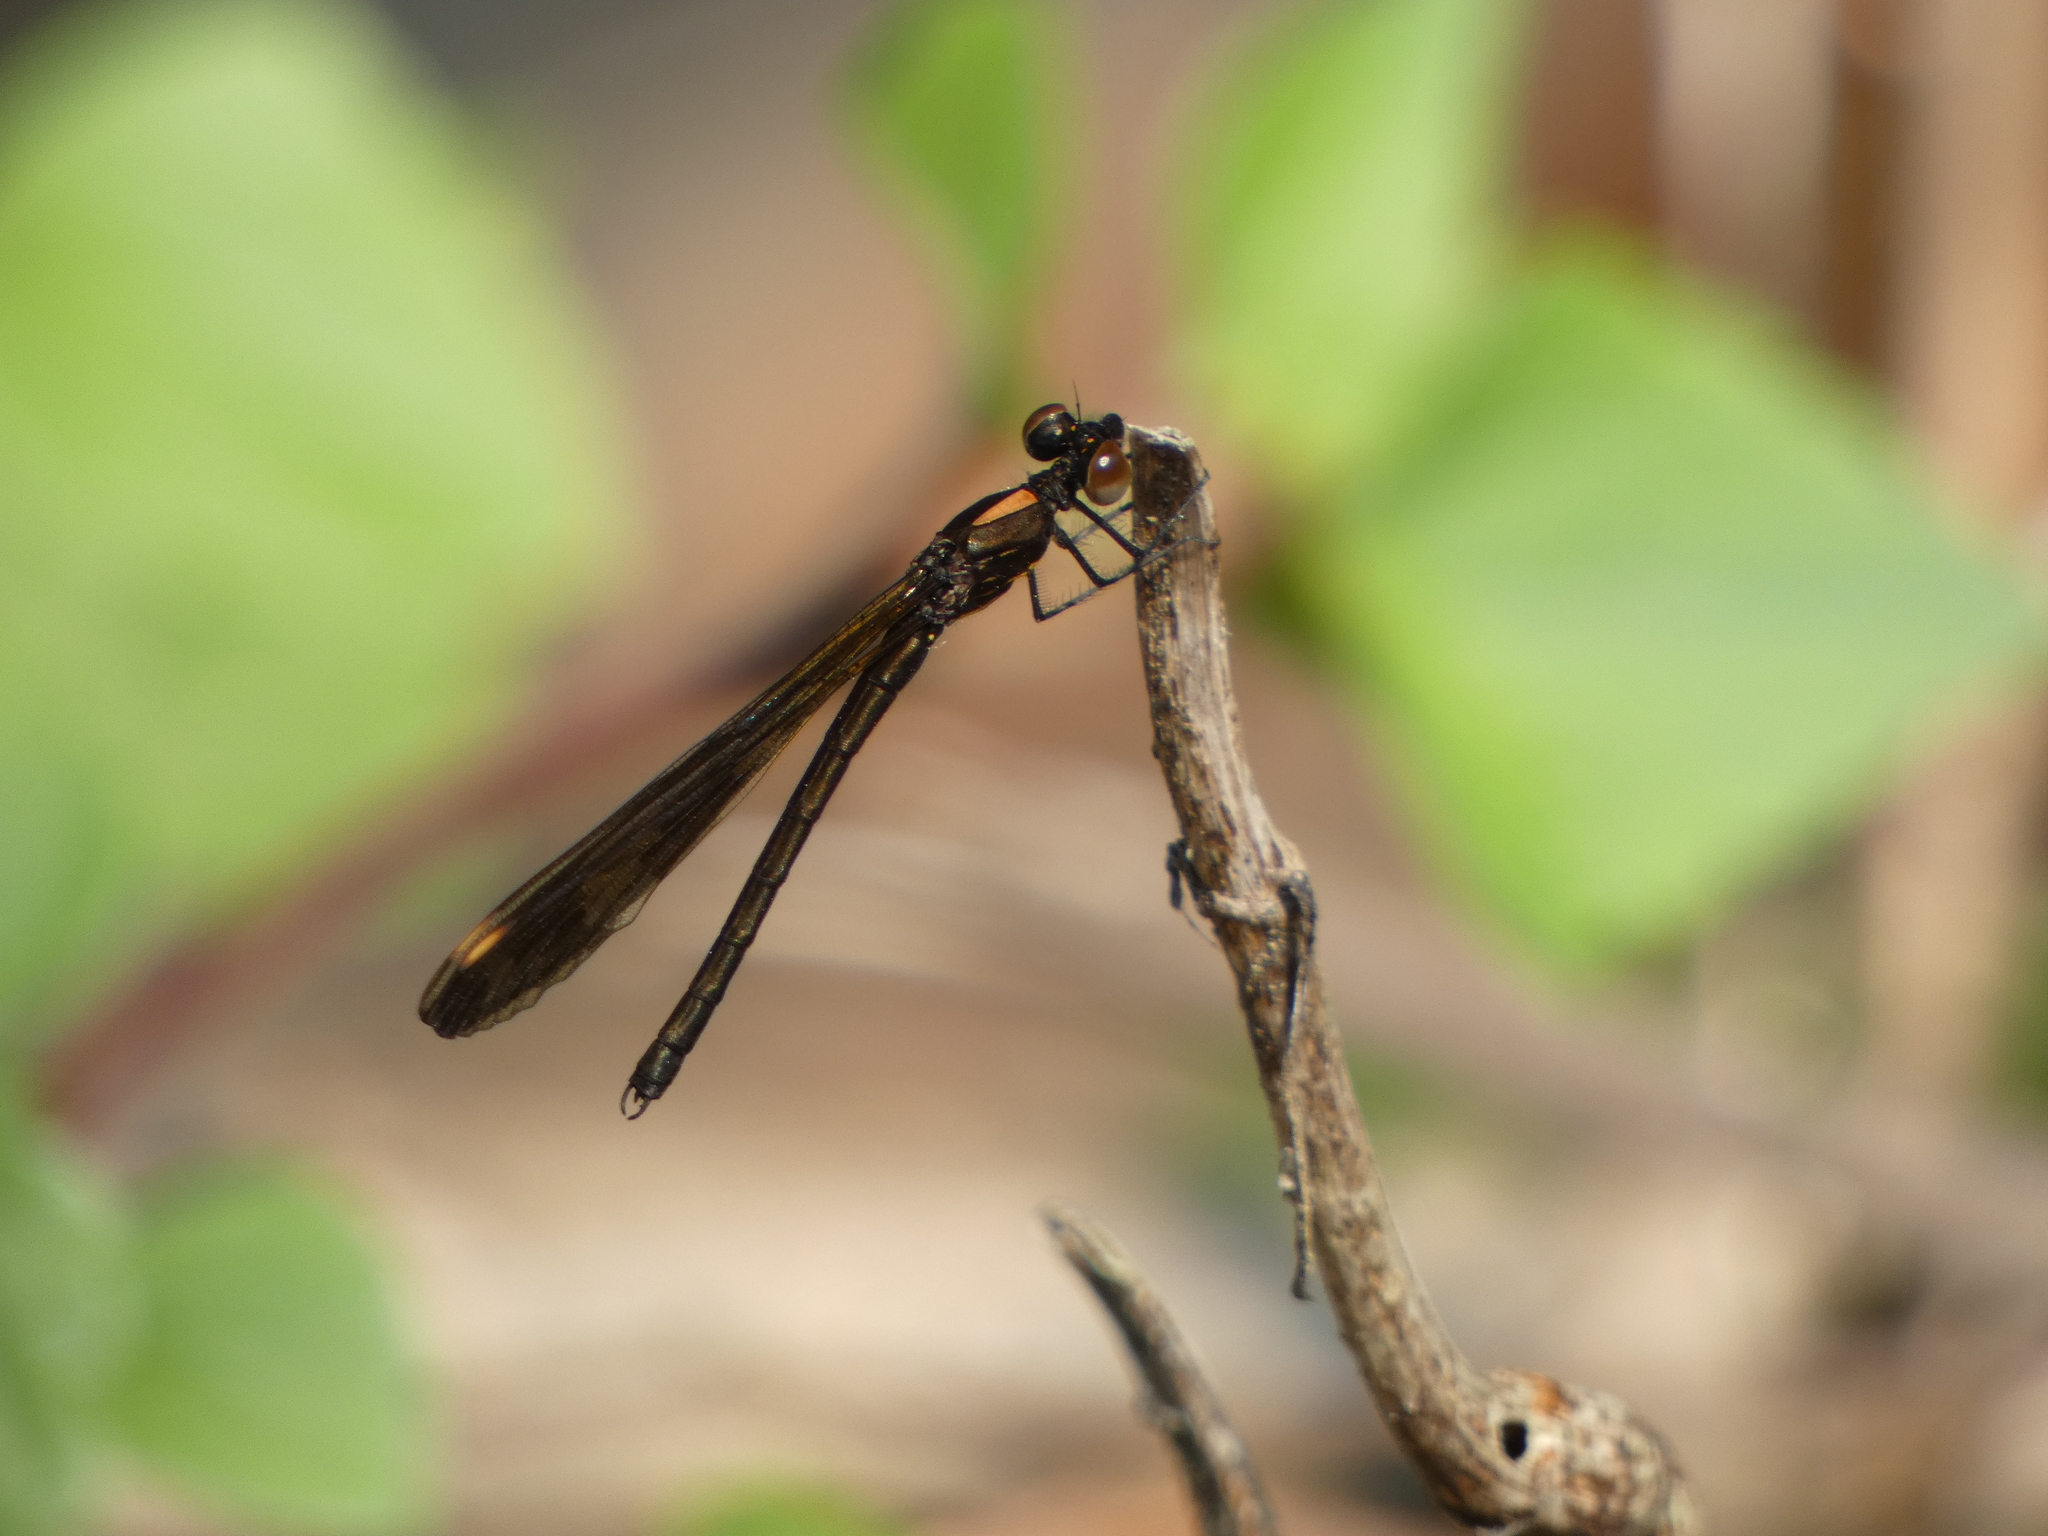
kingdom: Animalia
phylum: Arthropoda
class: Insecta
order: Odonata
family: Chlorocyphidae
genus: Aristocypha
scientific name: Aristocypha fenestrella
